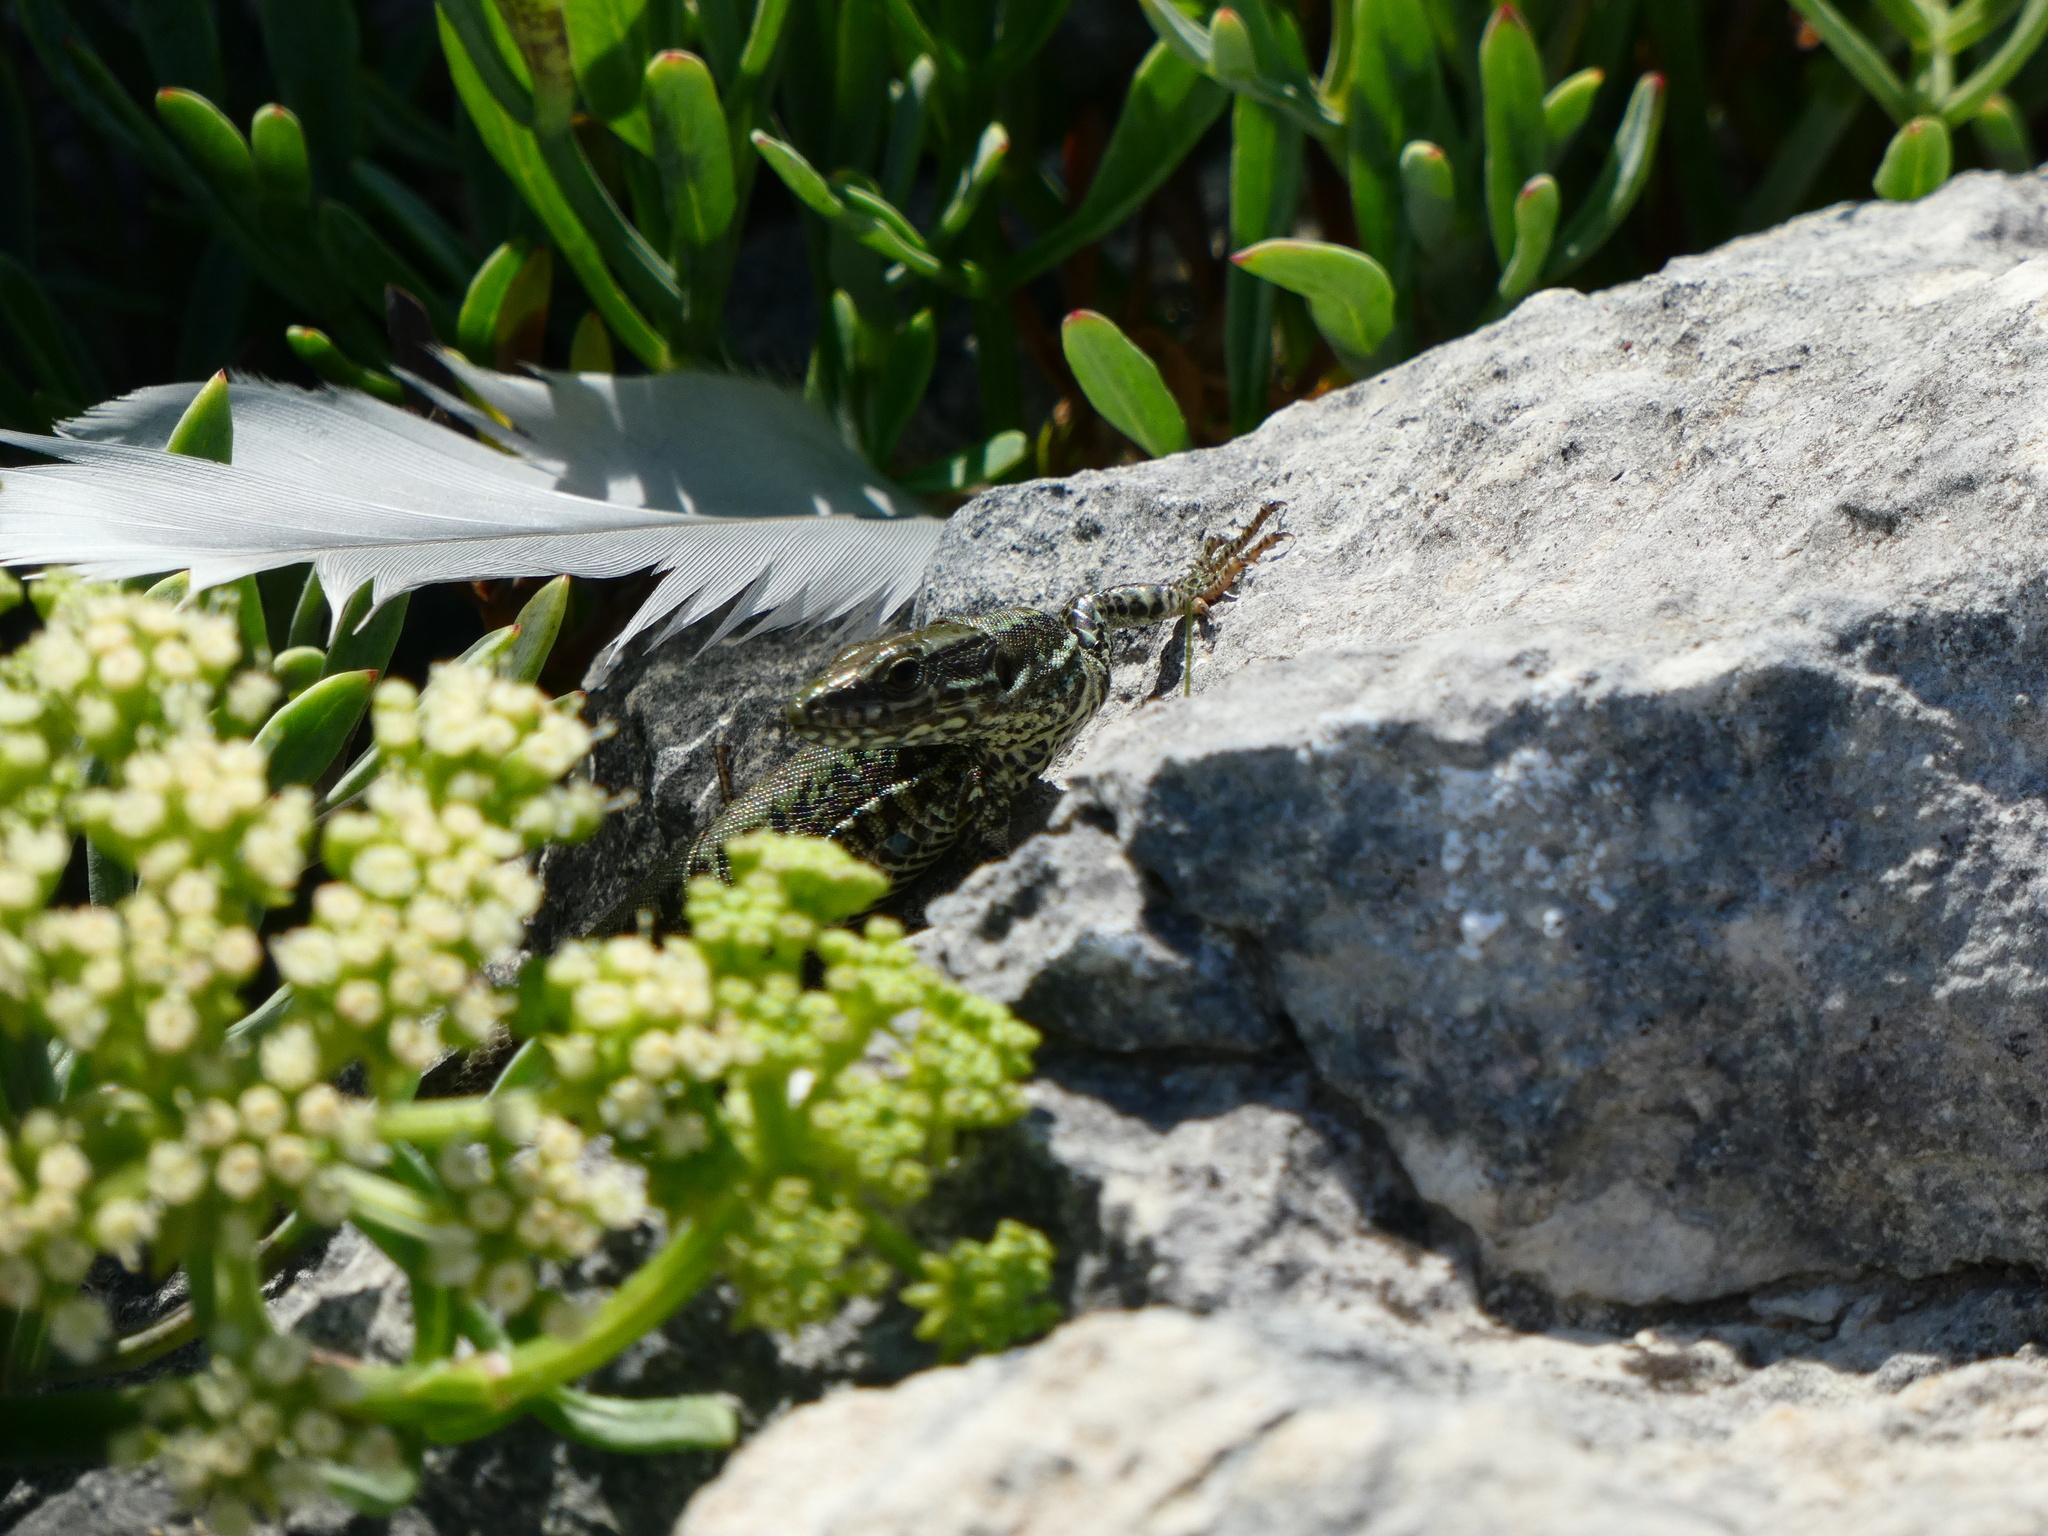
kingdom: Animalia
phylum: Chordata
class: Squamata
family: Lacertidae
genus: Podarcis
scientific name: Podarcis muralis
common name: Common wall lizard
